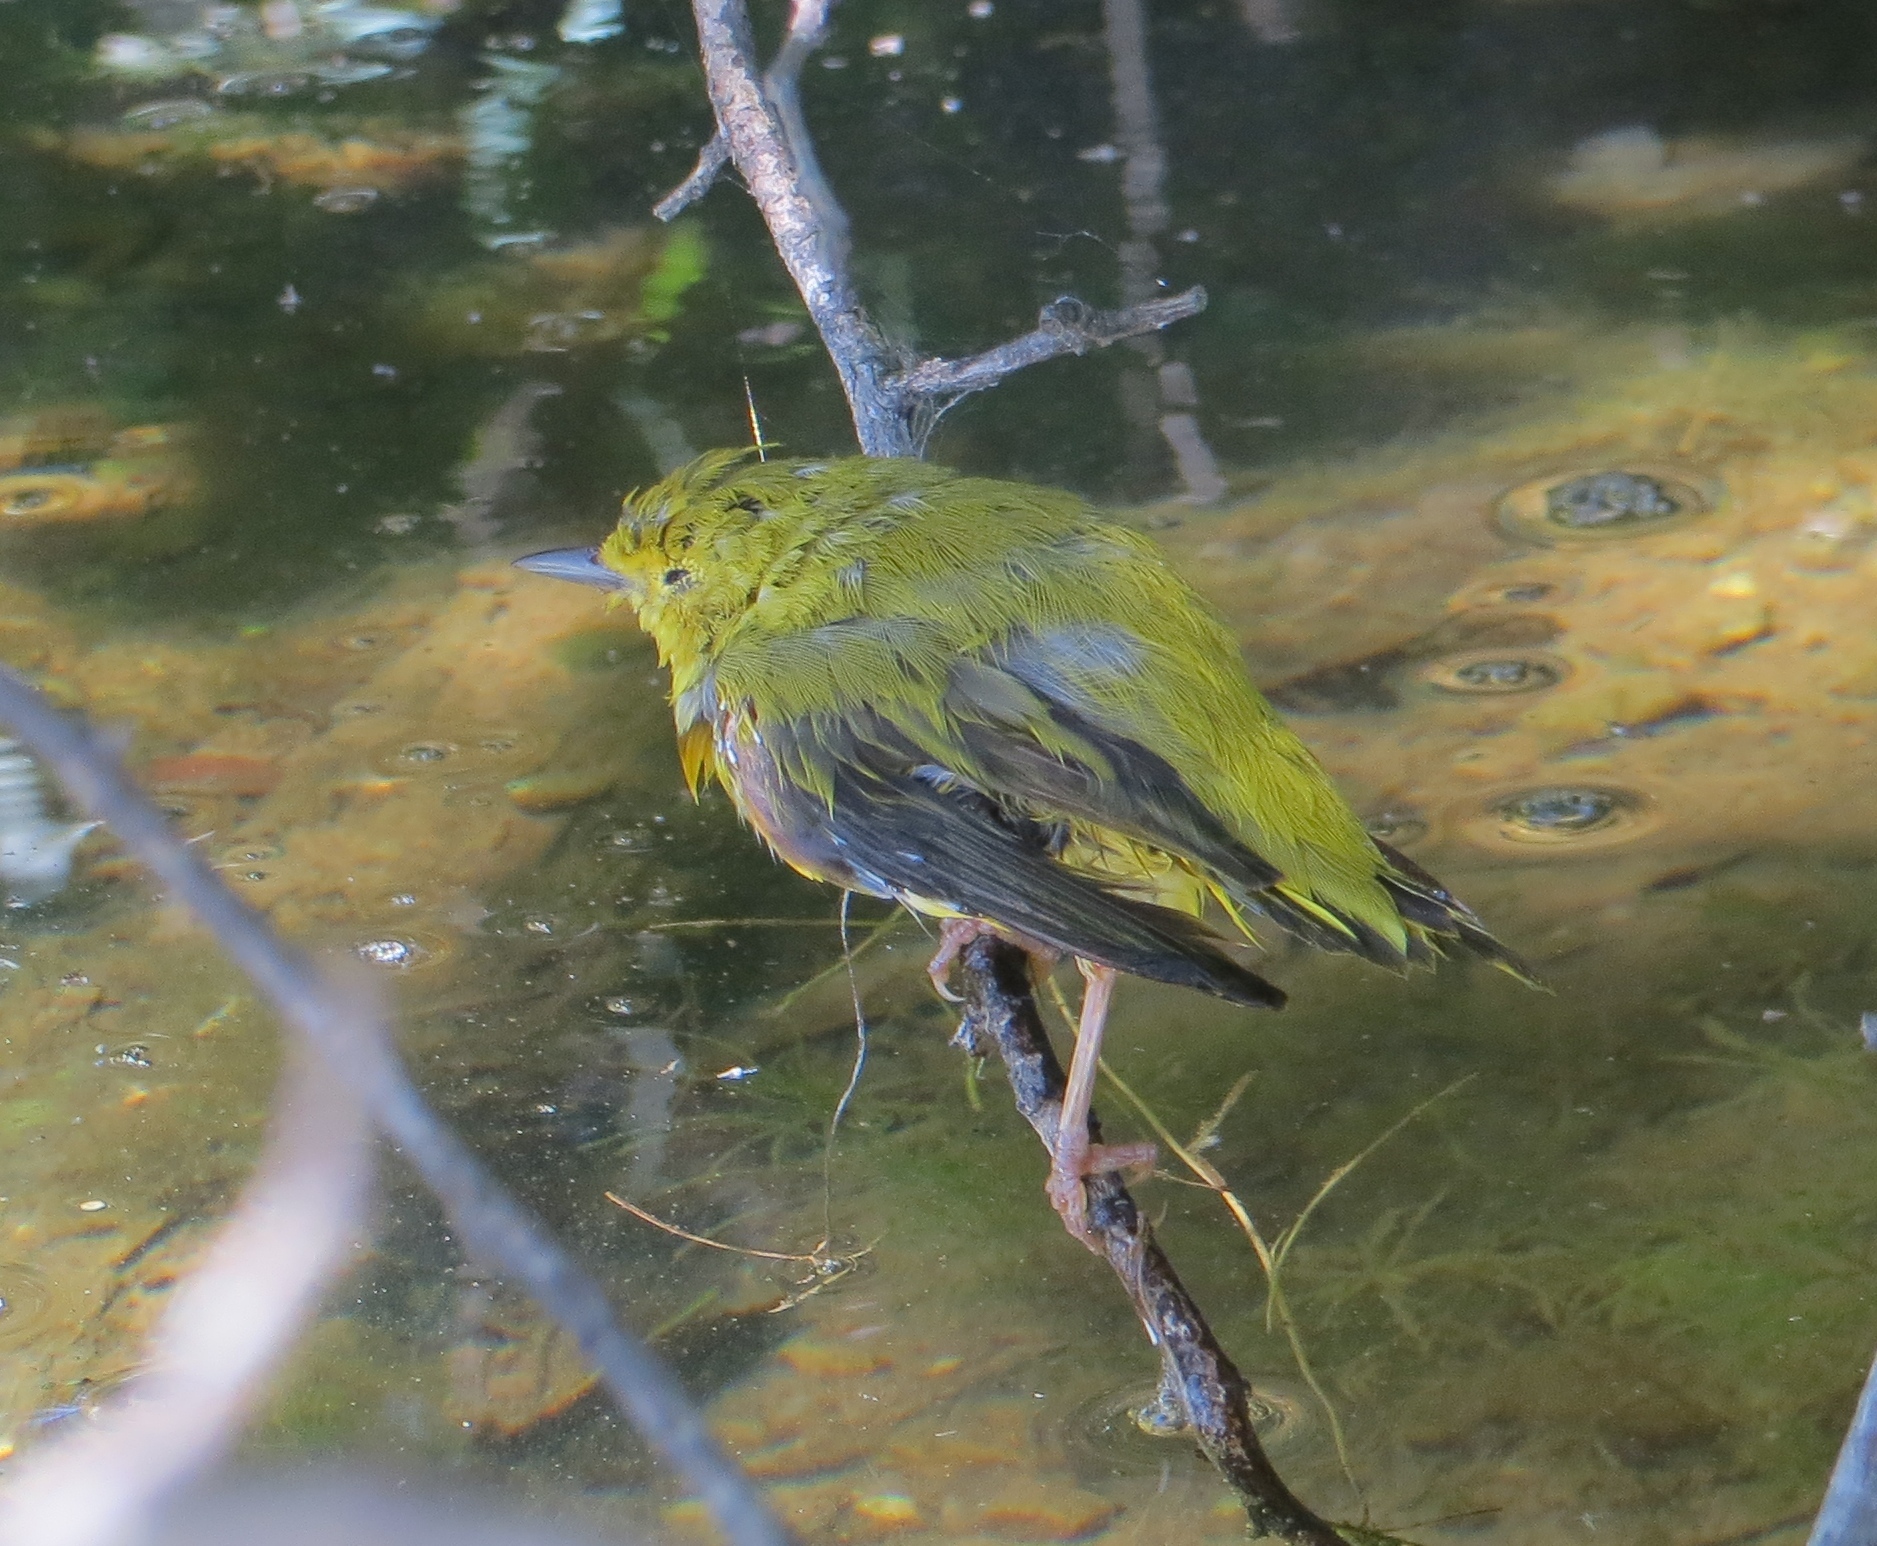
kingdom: Animalia
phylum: Chordata
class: Aves
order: Passeriformes
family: Parulidae
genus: Setophaga
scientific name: Setophaga petechia
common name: Yellow warbler
